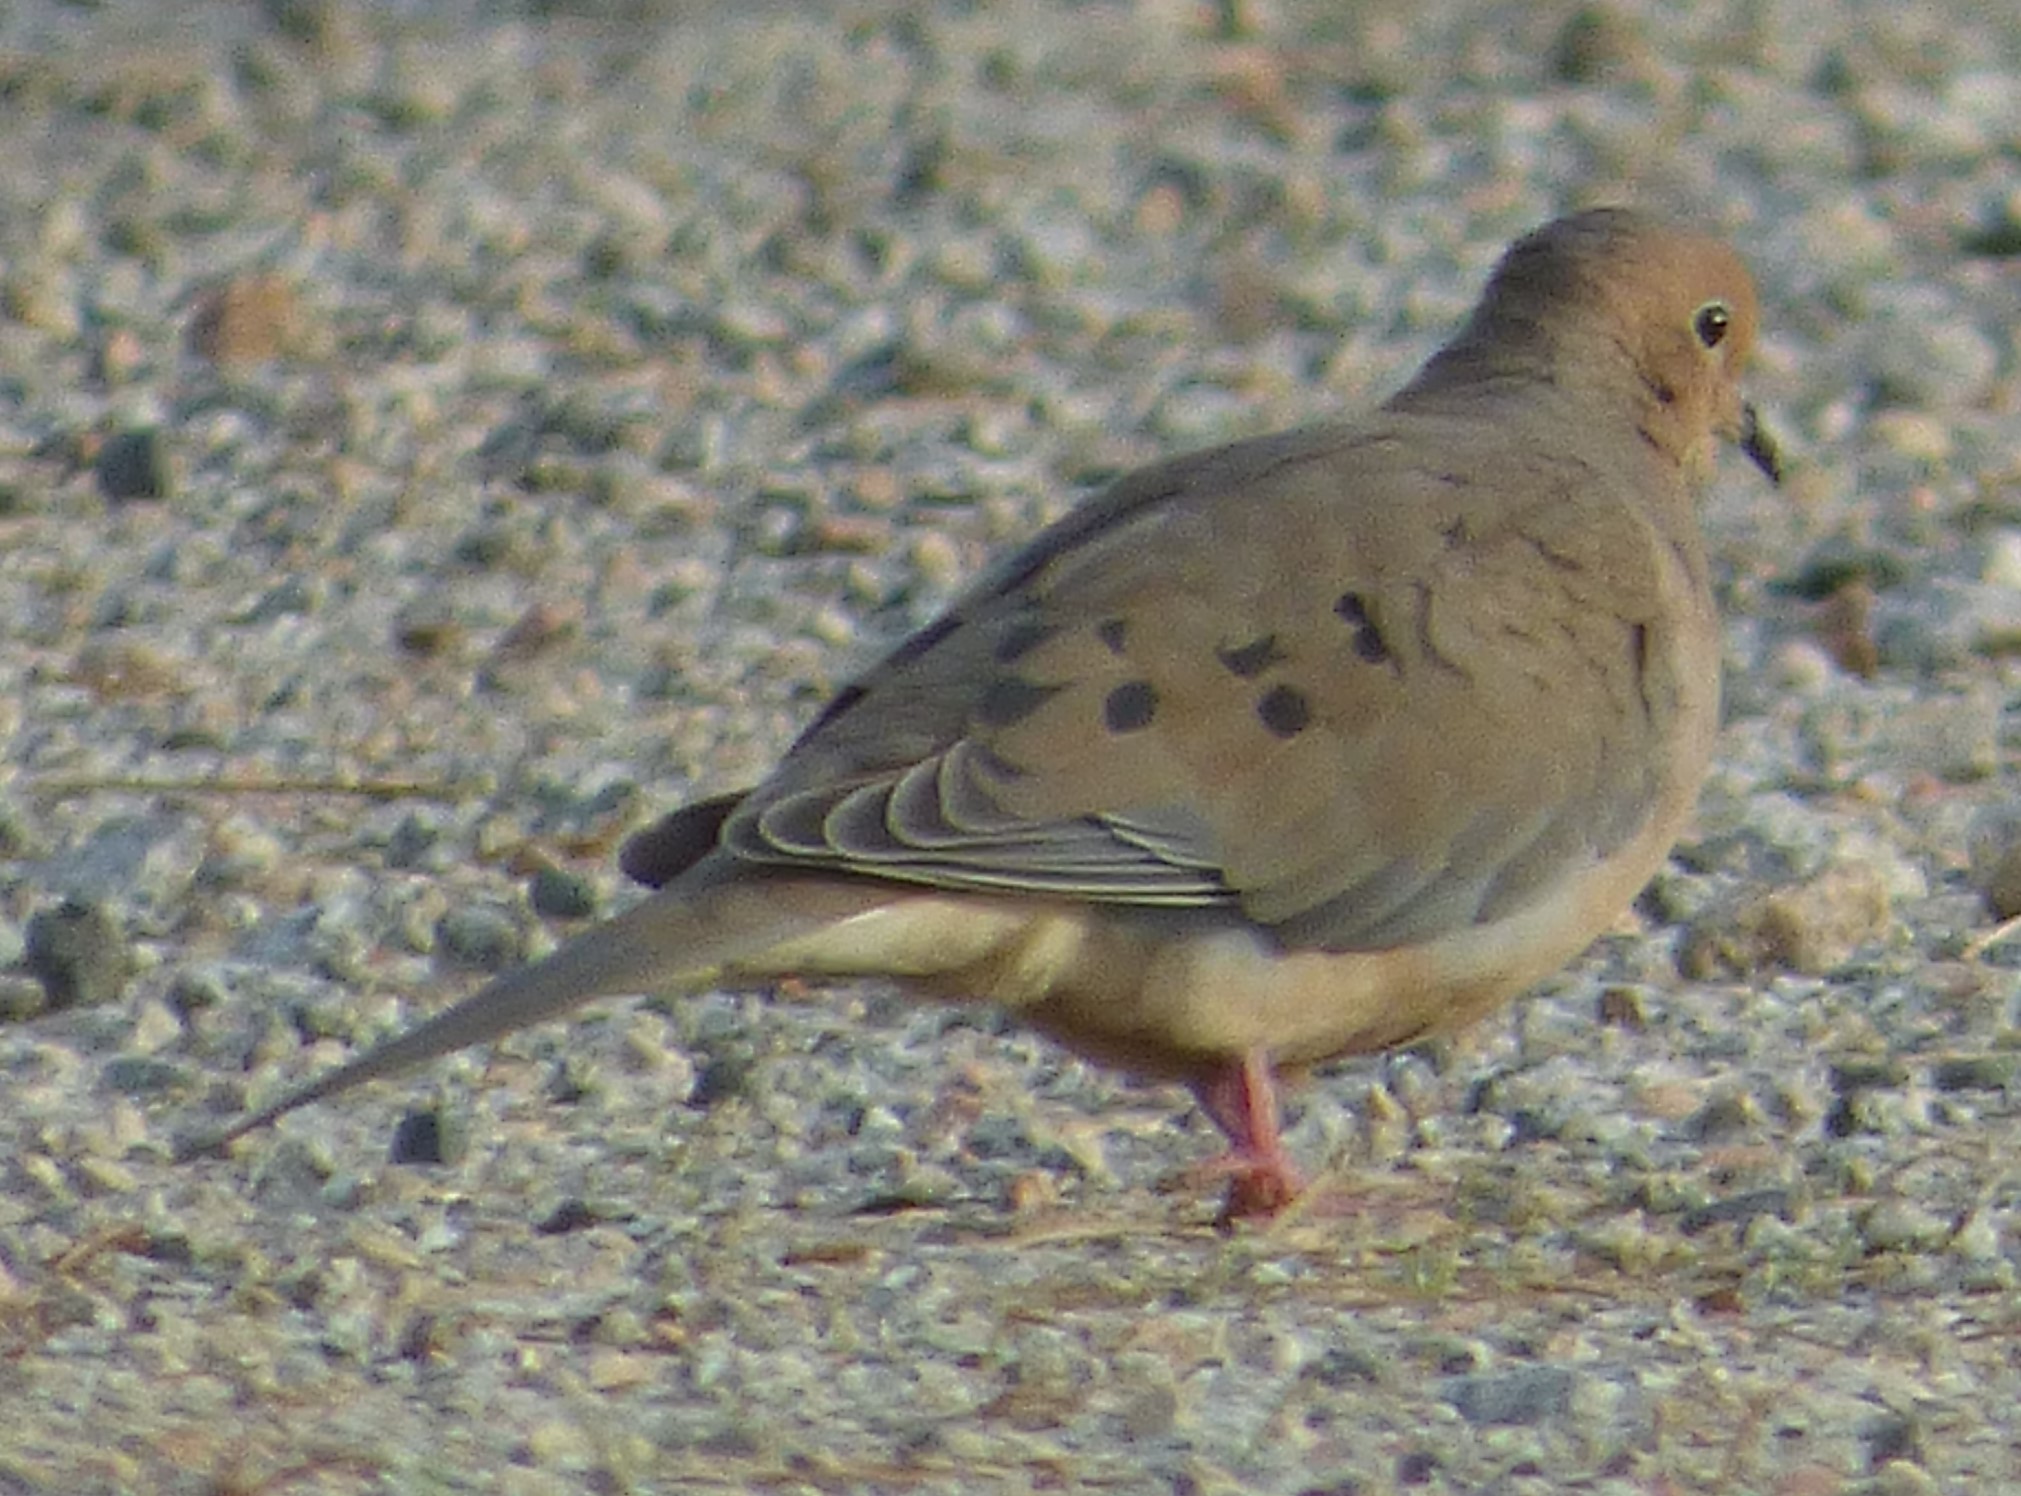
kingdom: Animalia
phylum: Chordata
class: Aves
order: Columbiformes
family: Columbidae
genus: Zenaida
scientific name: Zenaida macroura
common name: Mourning dove
